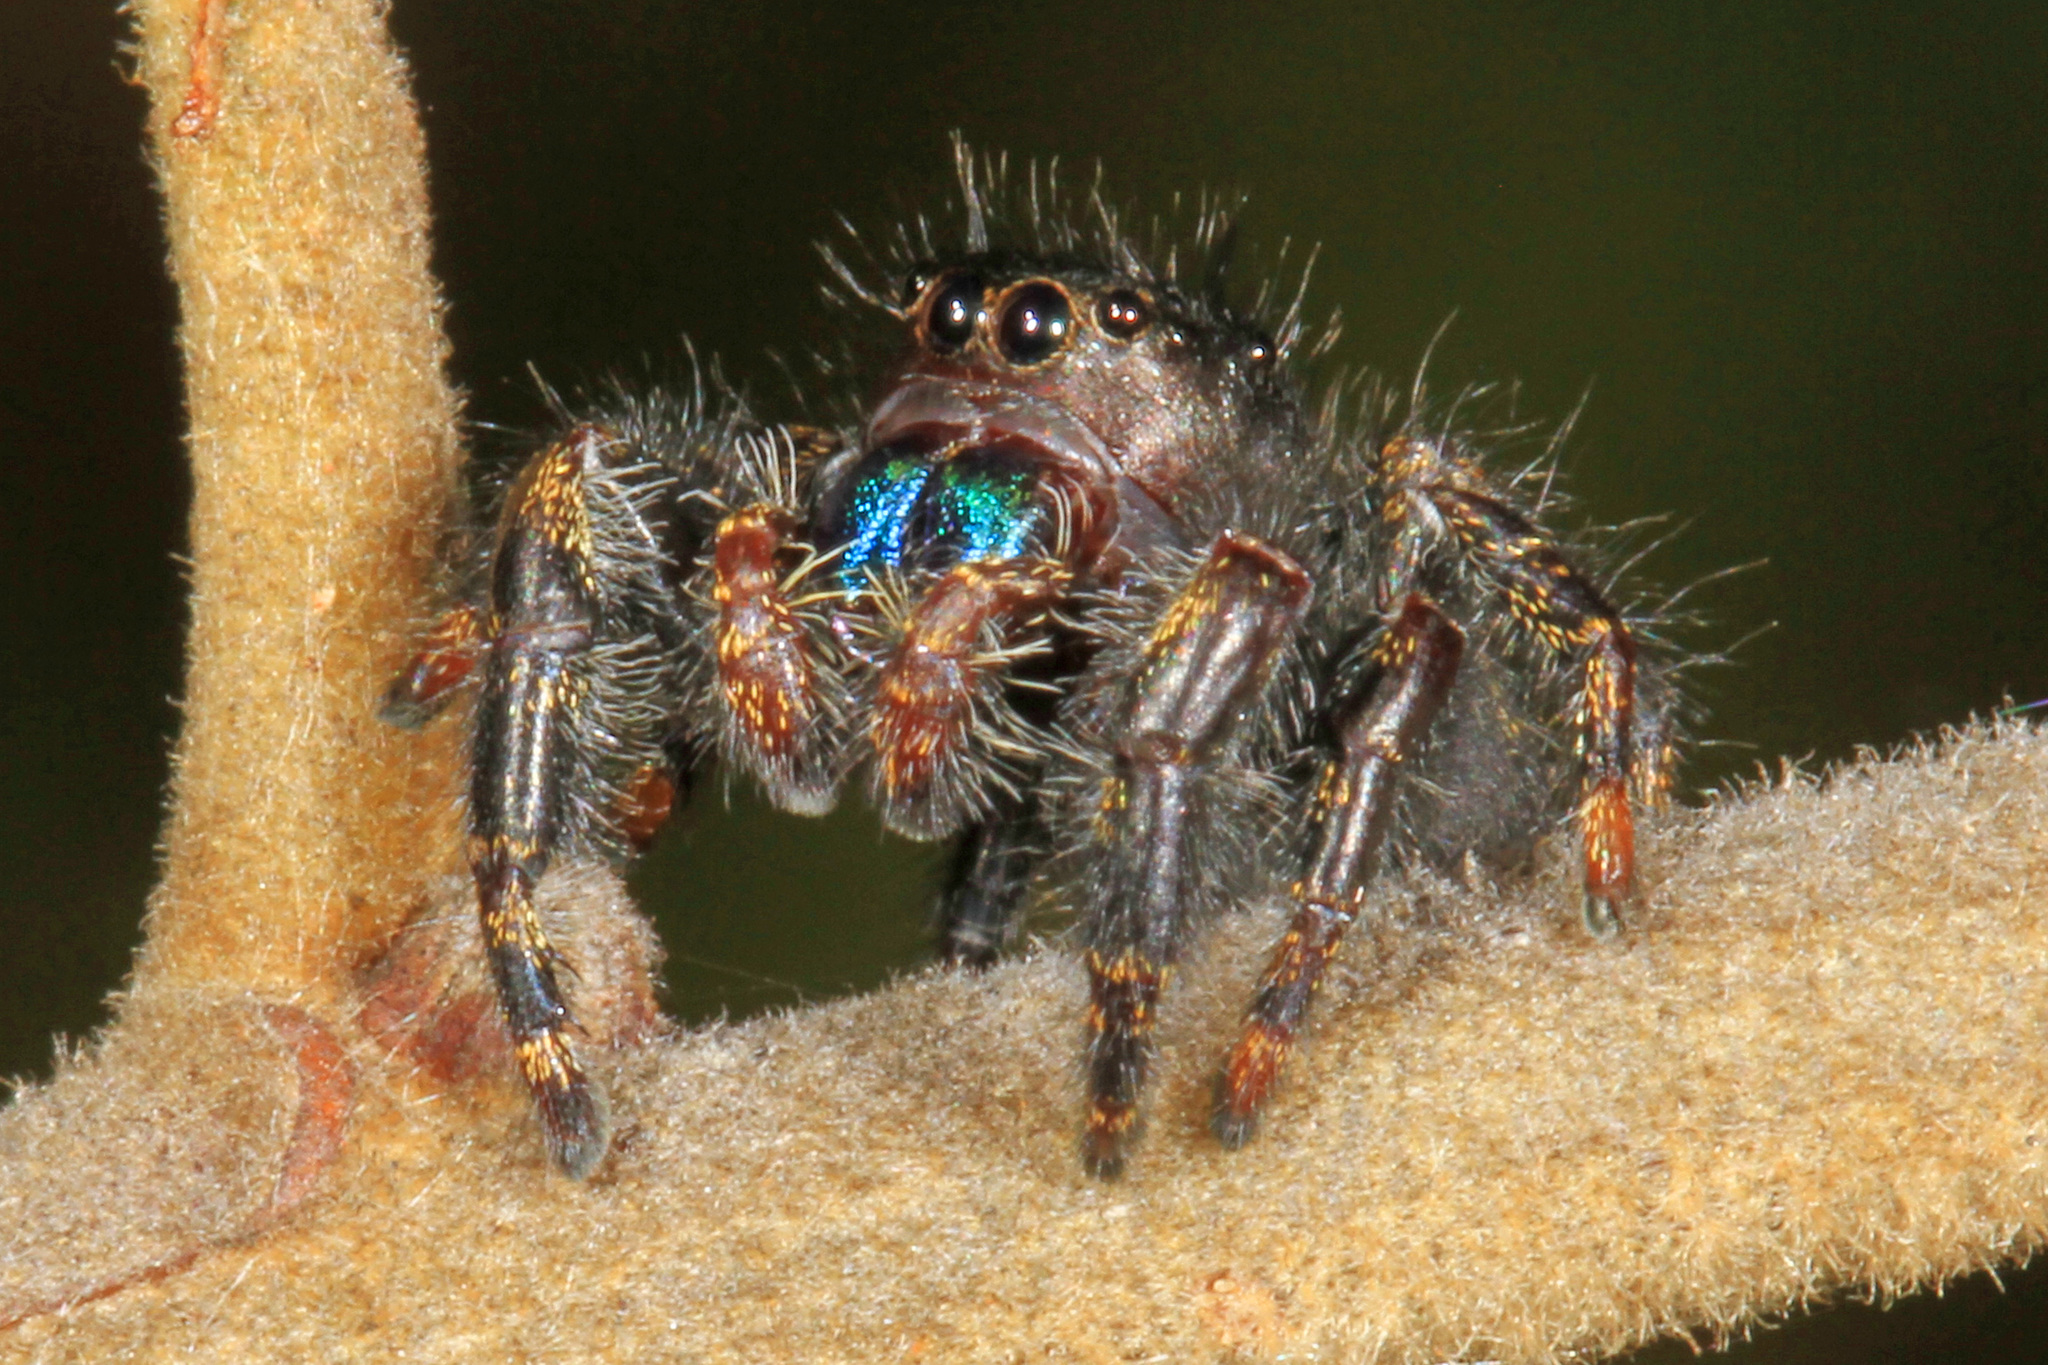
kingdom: Animalia
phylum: Arthropoda
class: Arachnida
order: Araneae
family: Salticidae
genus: Phidippus
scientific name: Phidippus audax
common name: Bold jumper
